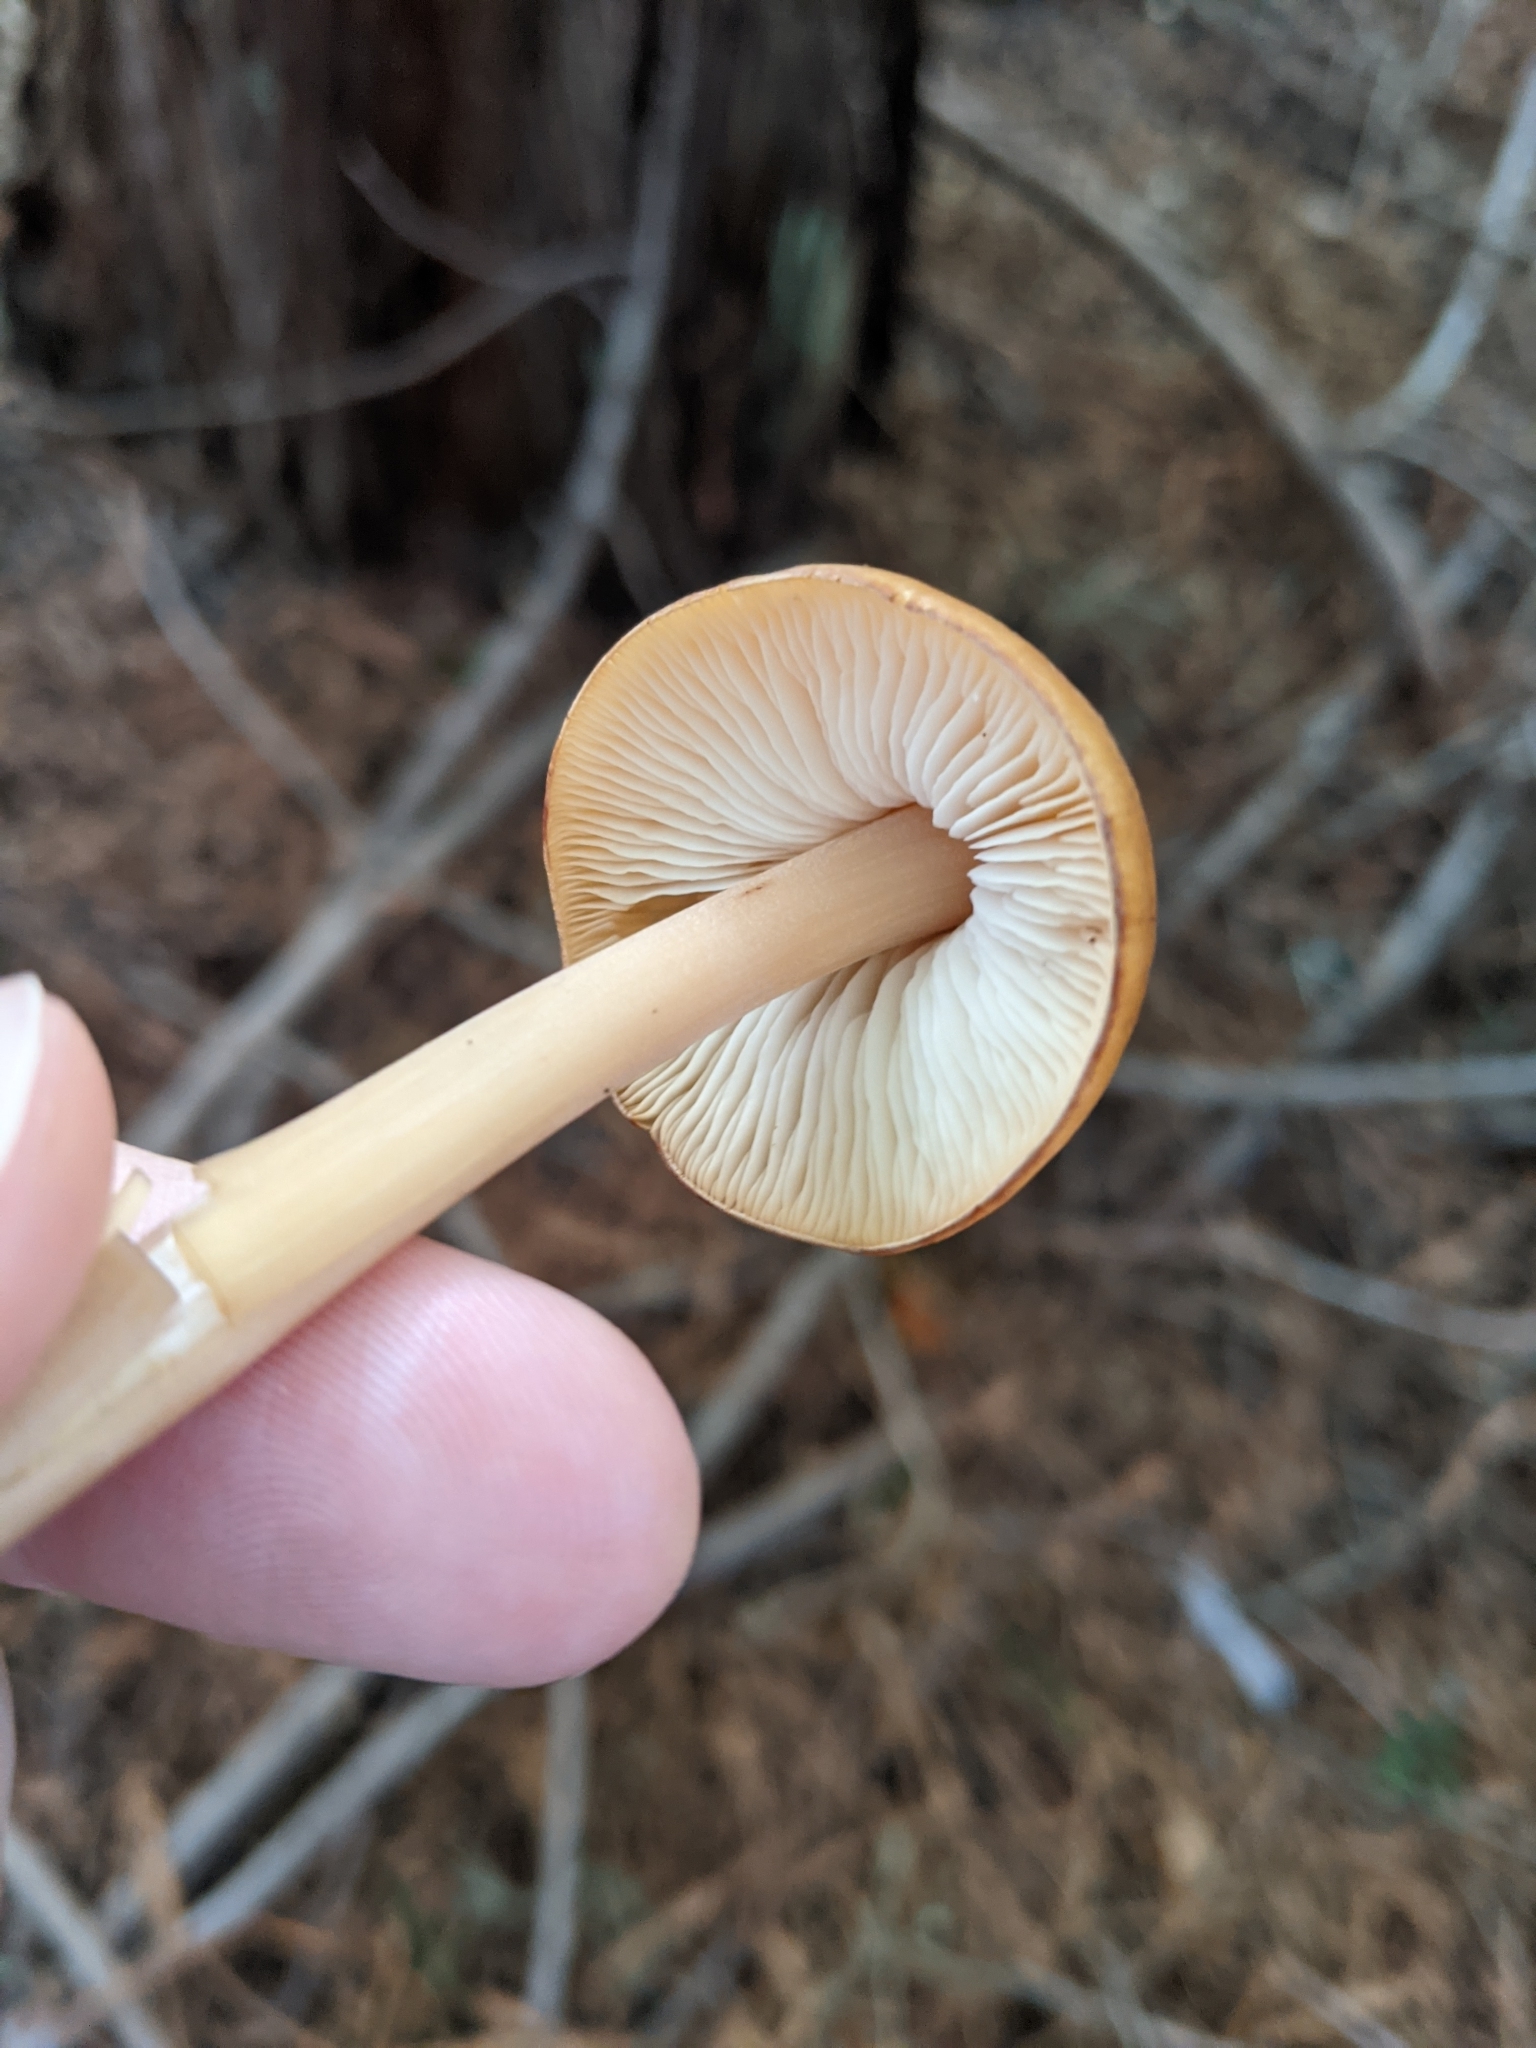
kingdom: Fungi
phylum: Basidiomycota
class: Agaricomycetes
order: Agaricales
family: Tricholomataceae
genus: Caulorhiza
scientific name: Caulorhiza umbonata
